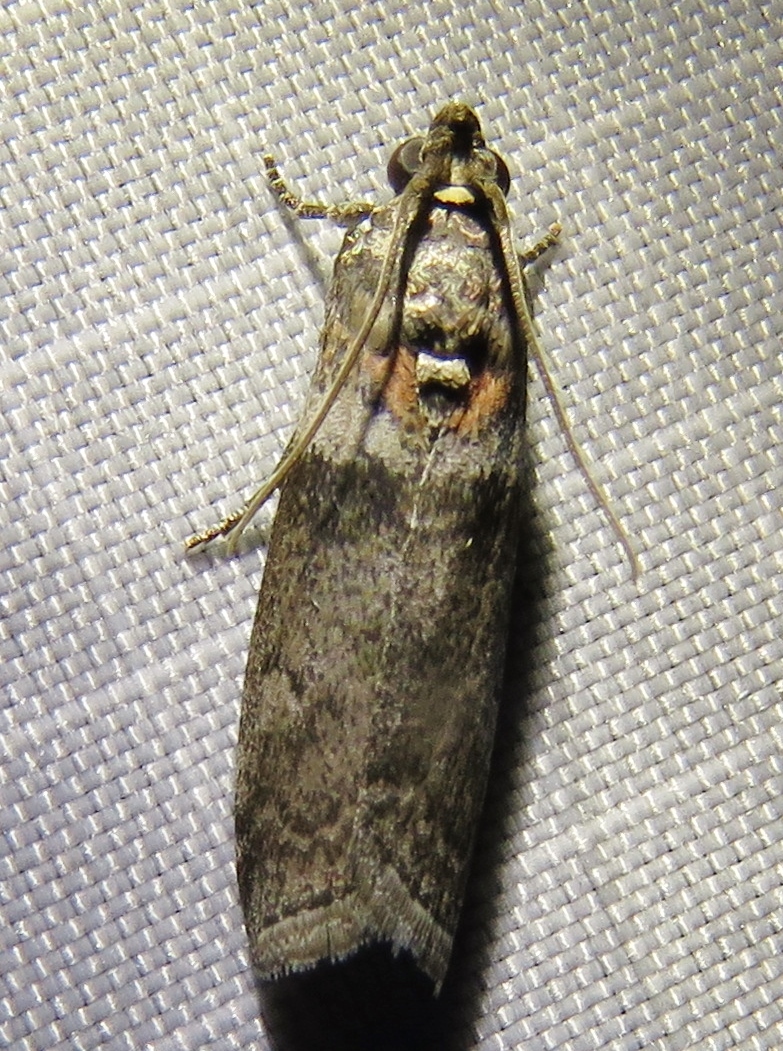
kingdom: Animalia
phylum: Arthropoda
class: Insecta
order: Lepidoptera
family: Pyralidae
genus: Sciota
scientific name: Sciota subfuscella
